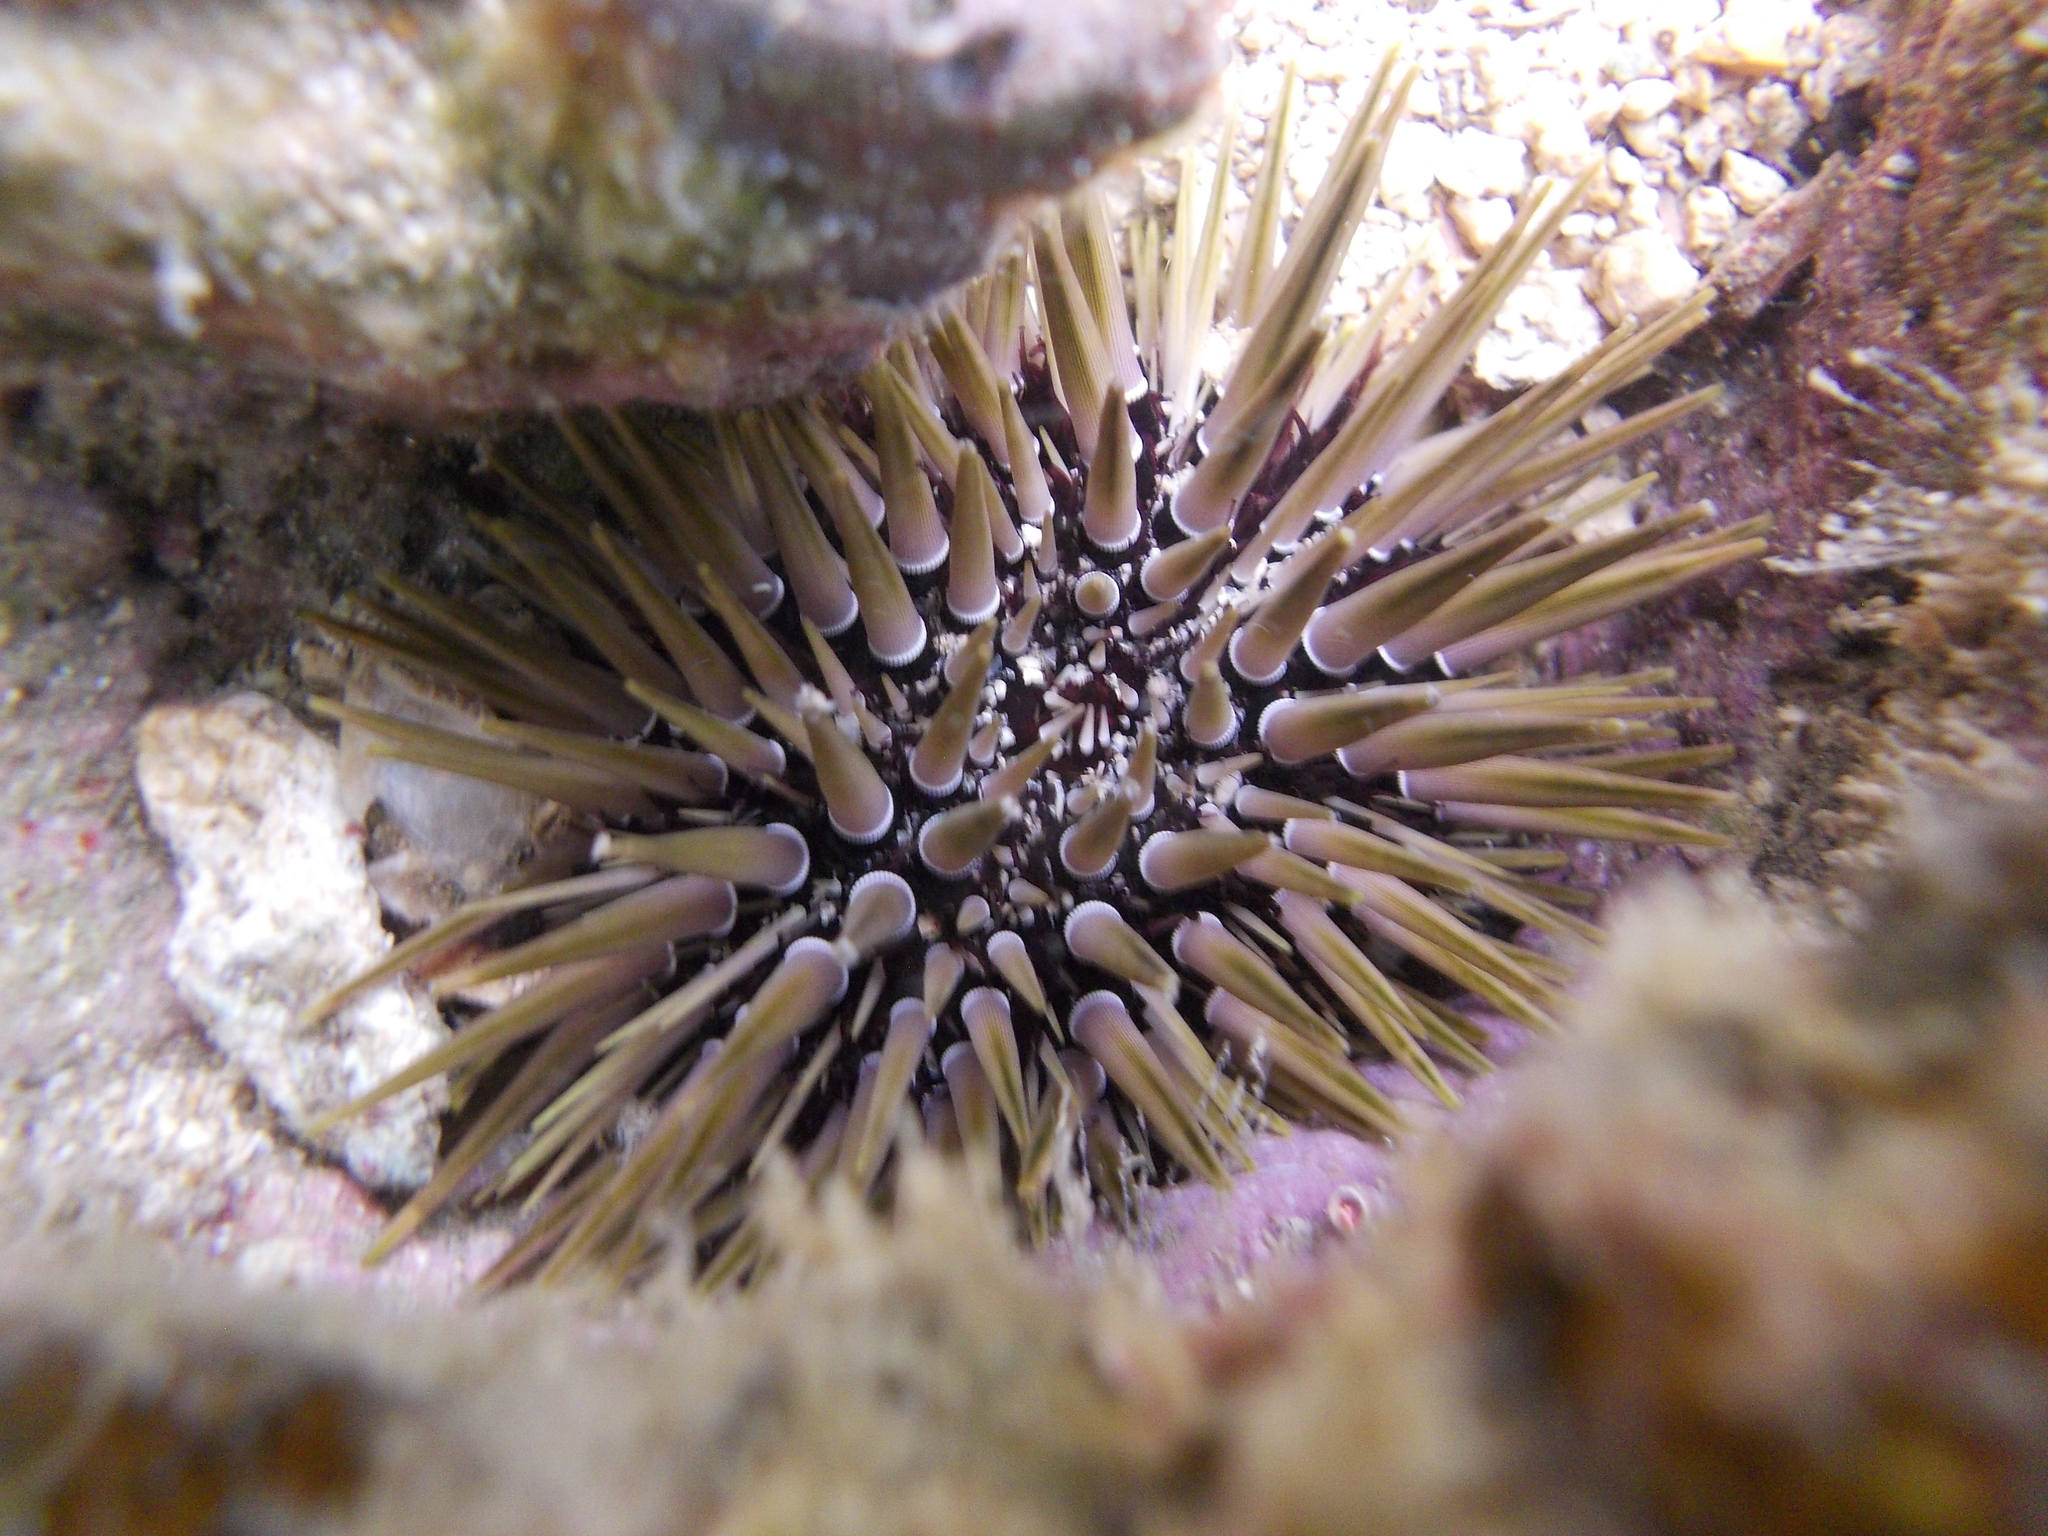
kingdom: Animalia
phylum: Echinodermata
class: Echinoidea
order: Camarodonta
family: Echinometridae
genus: Echinometra
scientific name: Echinometra mathaei
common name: Rock-boring urchin
